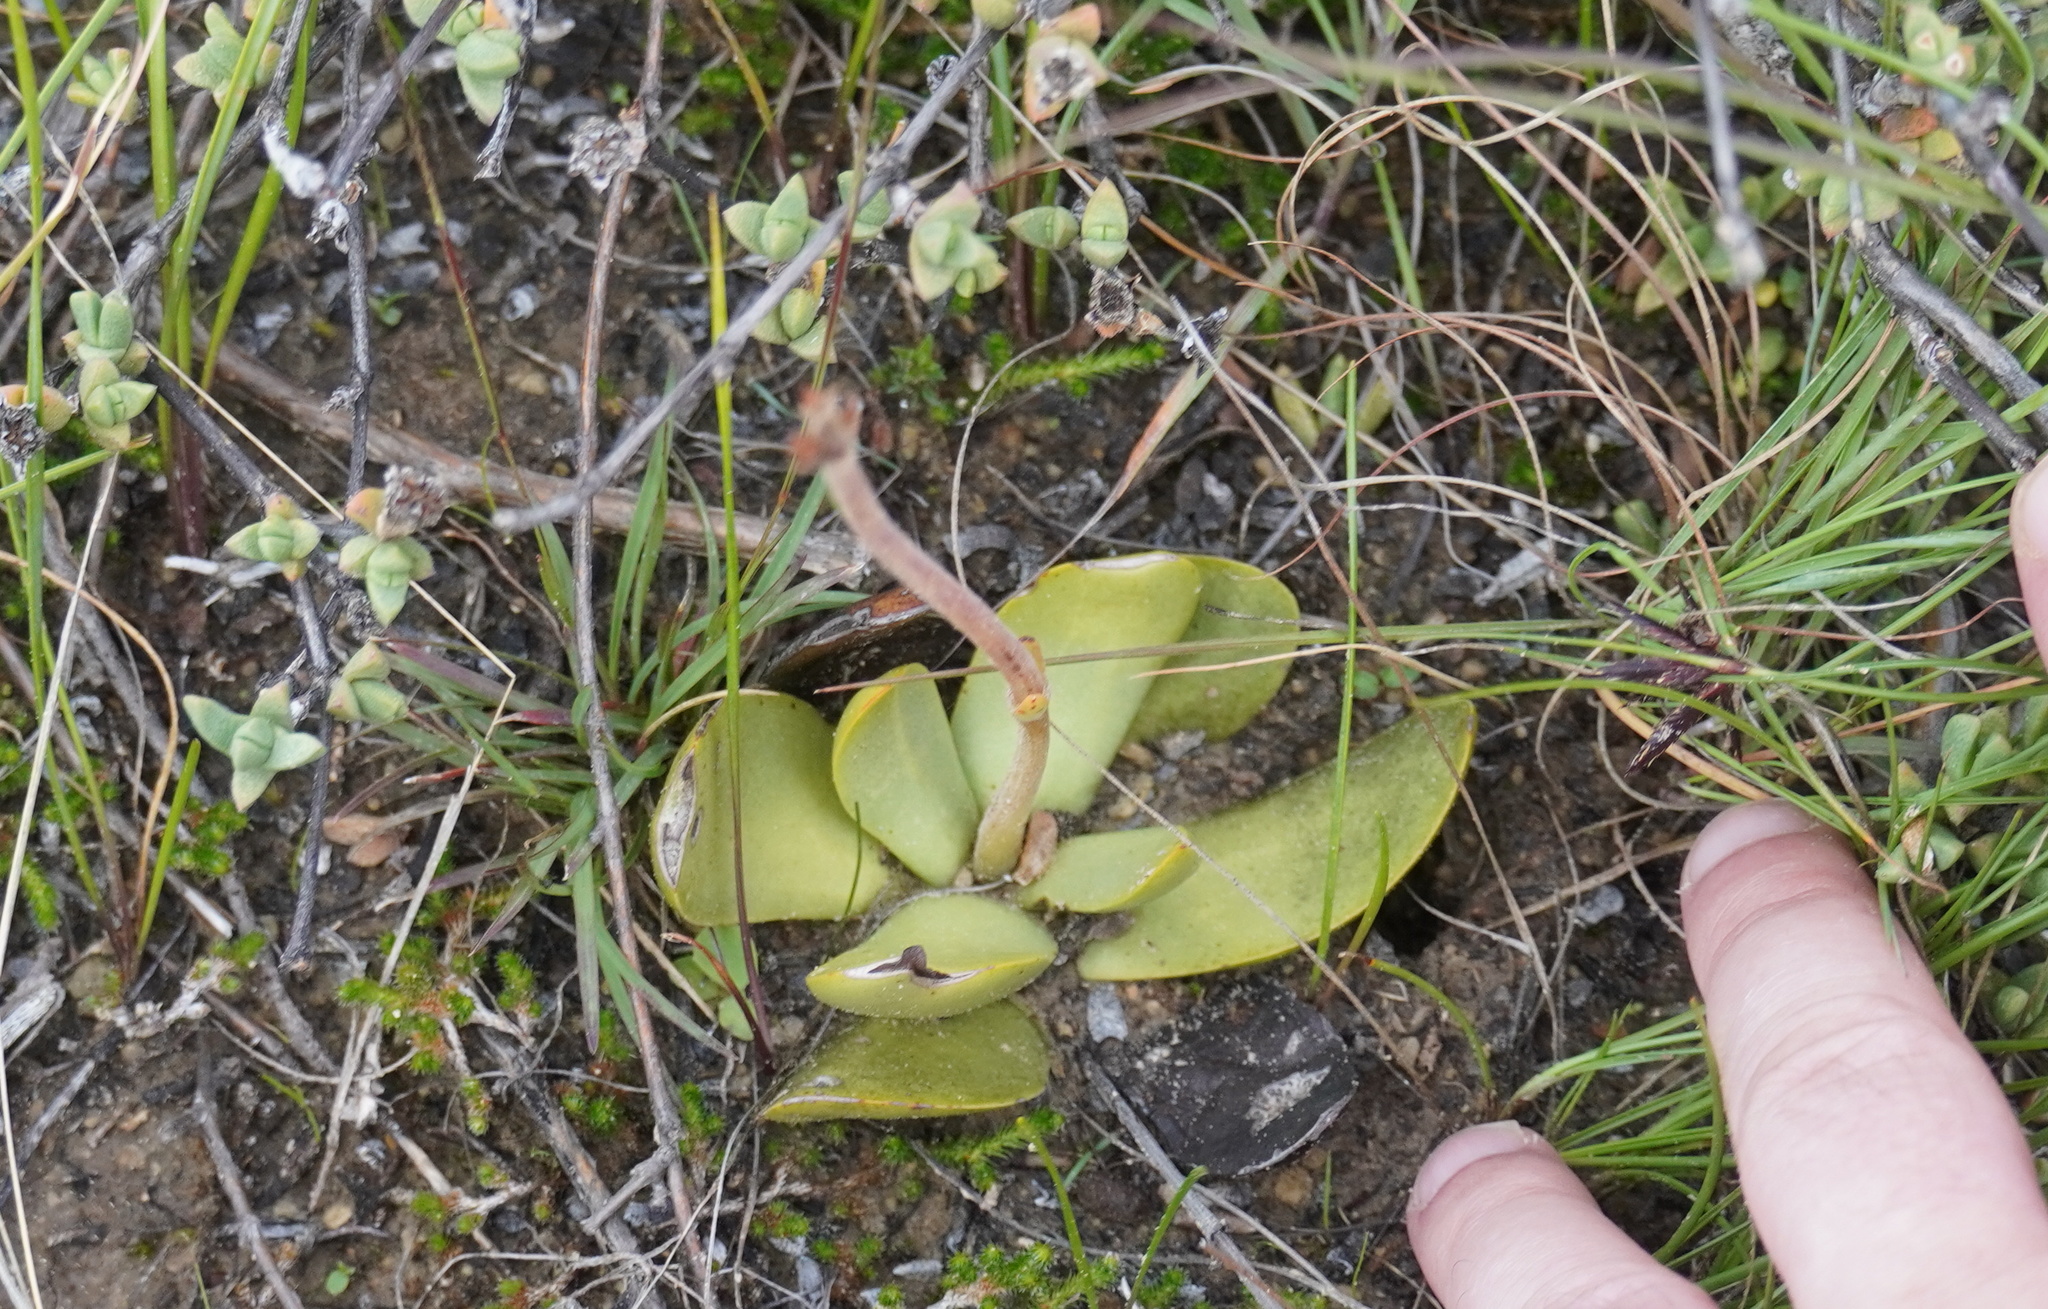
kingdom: Plantae
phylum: Tracheophyta
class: Magnoliopsida
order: Saxifragales
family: Crassulaceae
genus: Crassula
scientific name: Crassula nudicaulis
